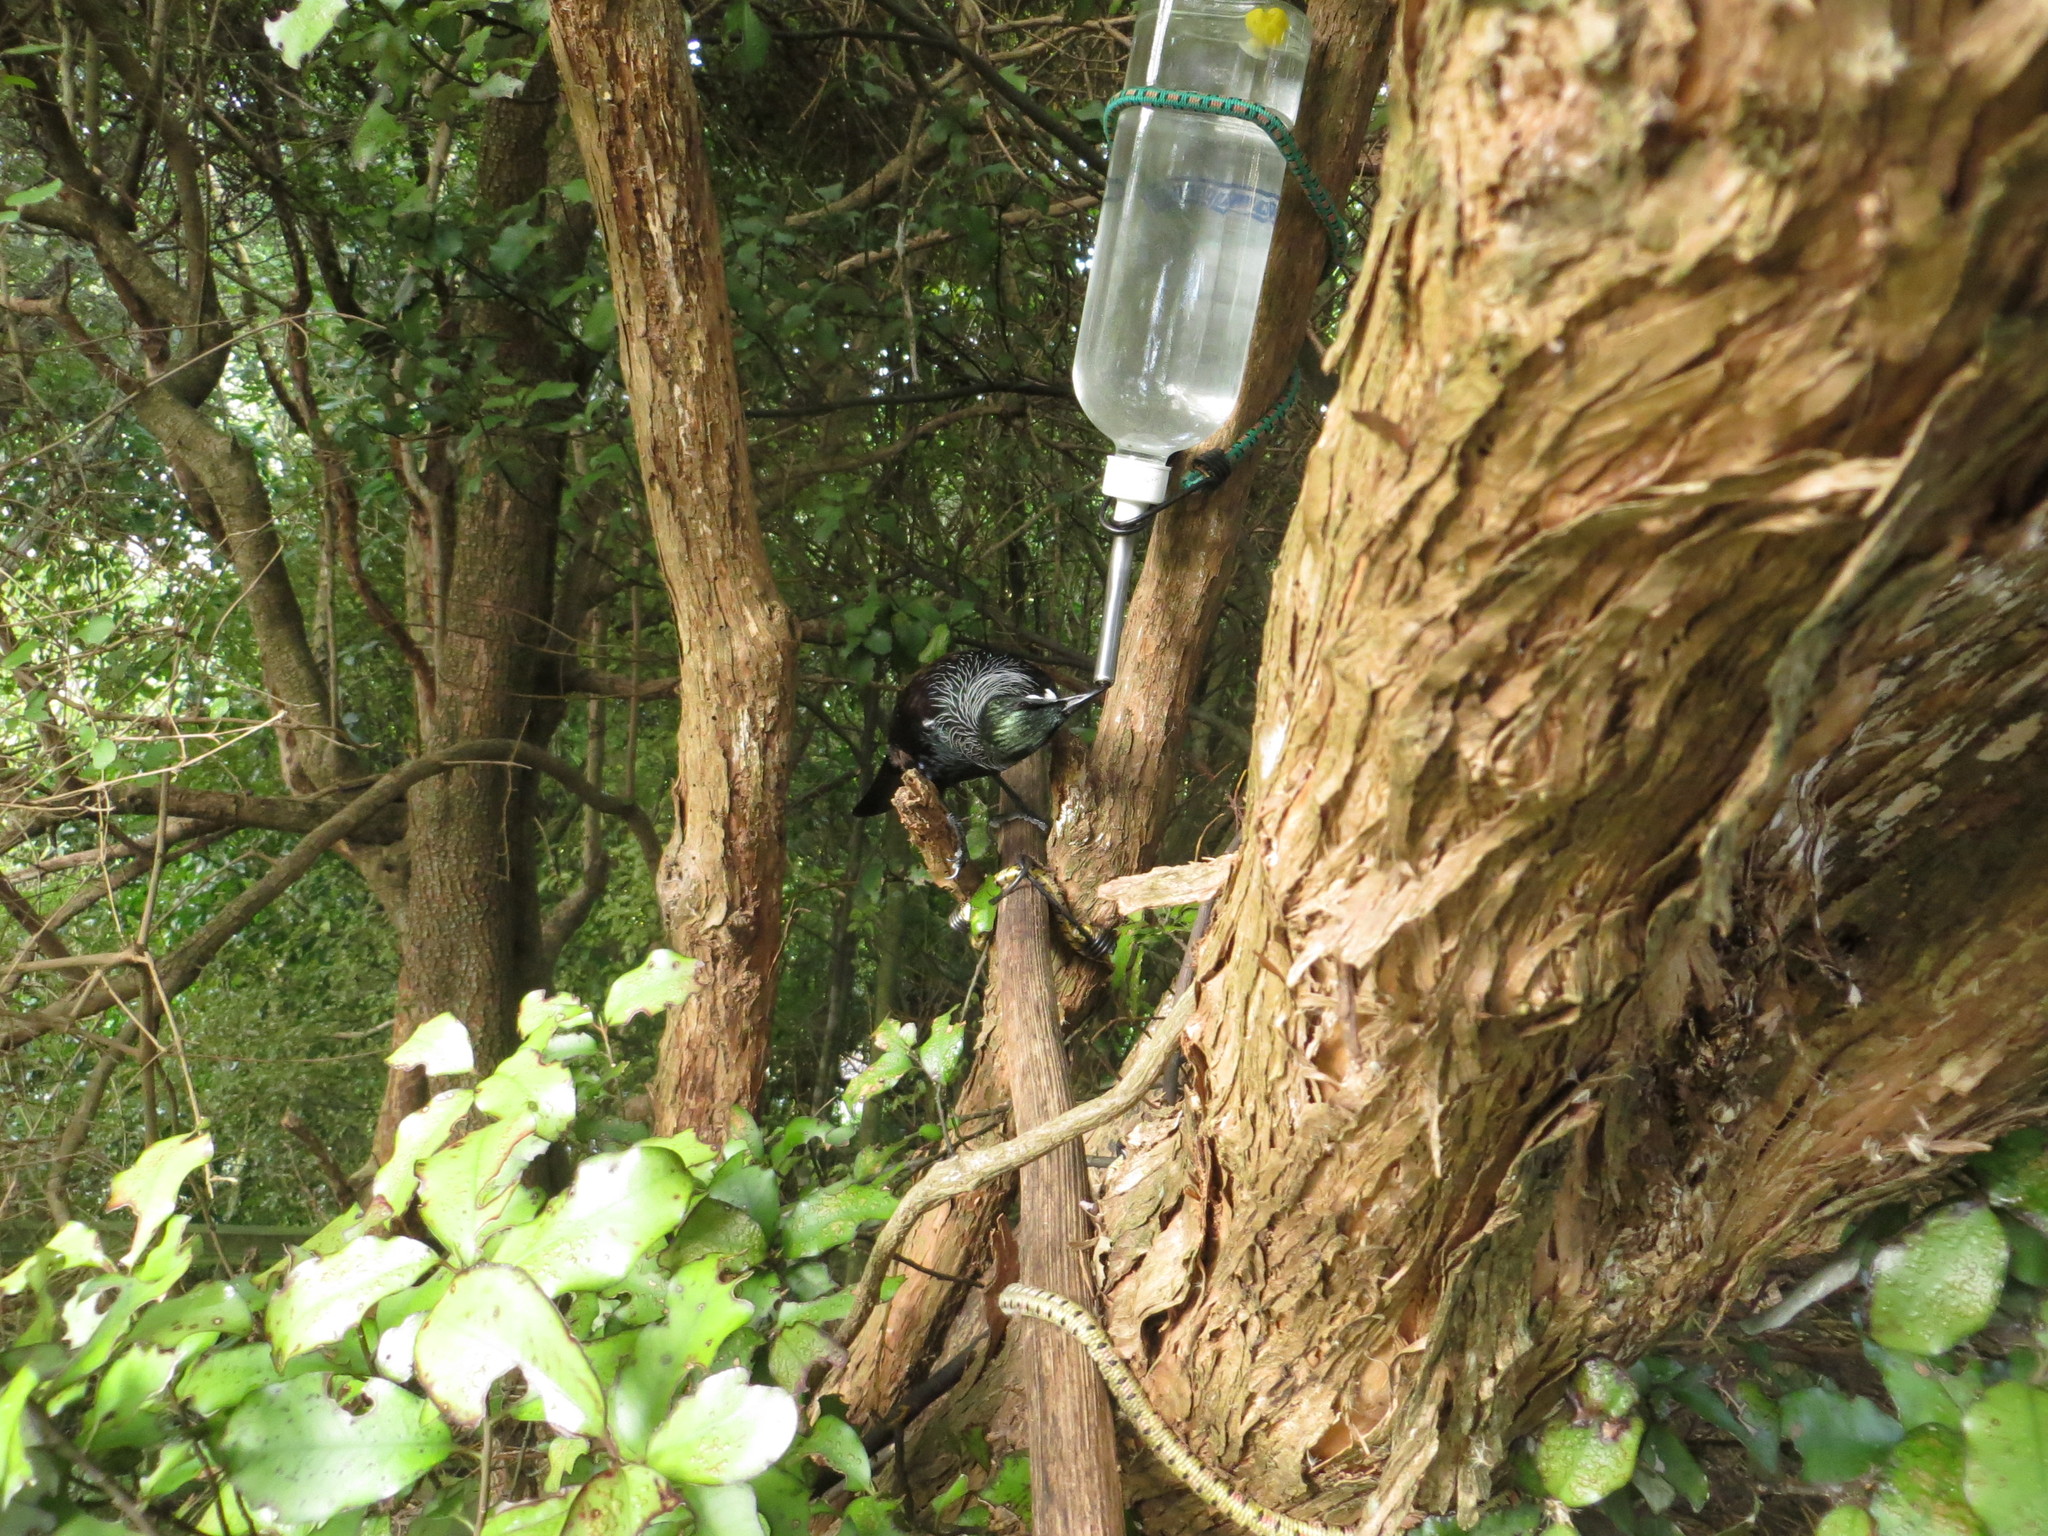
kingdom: Animalia
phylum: Chordata
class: Aves
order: Passeriformes
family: Meliphagidae
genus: Prosthemadera
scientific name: Prosthemadera novaeseelandiae
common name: Tui
